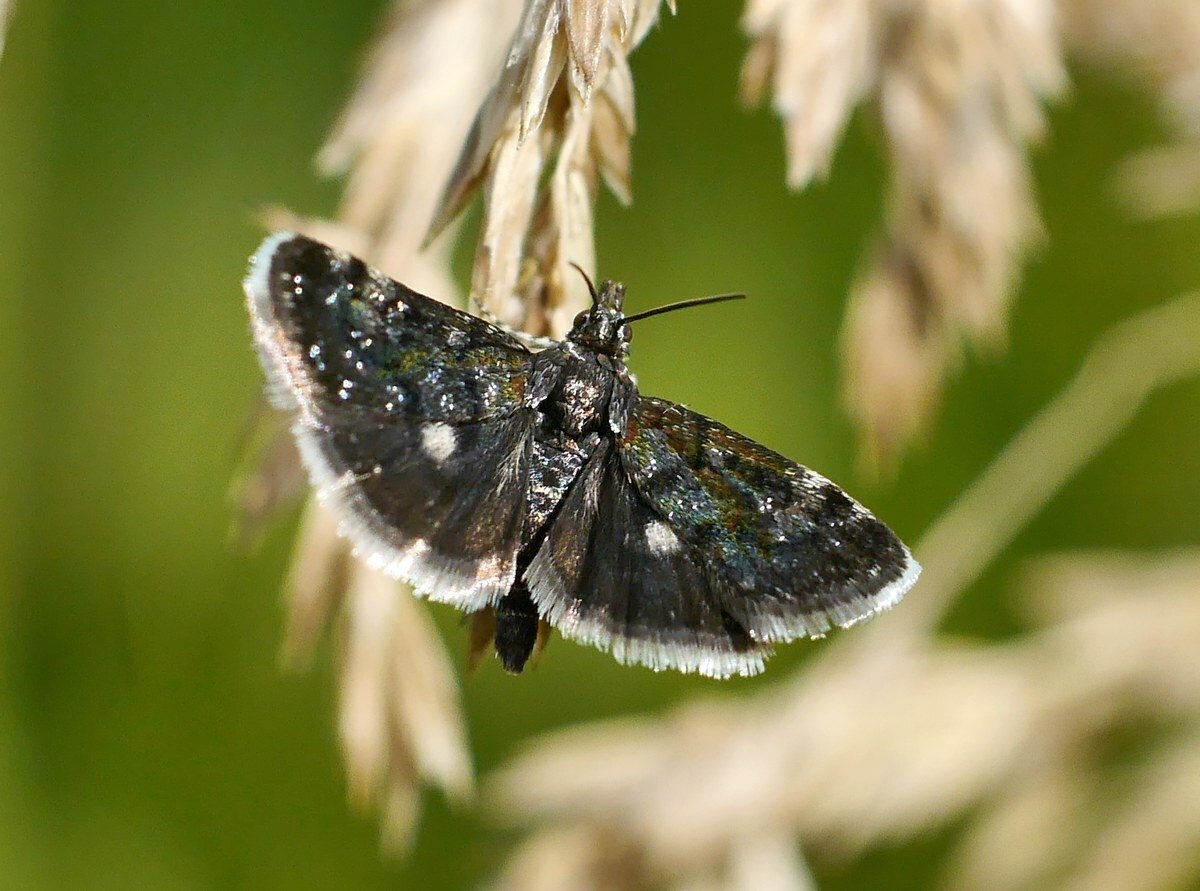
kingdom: Animalia
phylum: Arthropoda
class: Insecta
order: Lepidoptera
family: Crambidae
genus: Heliothela
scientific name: Heliothela wulfeniana
